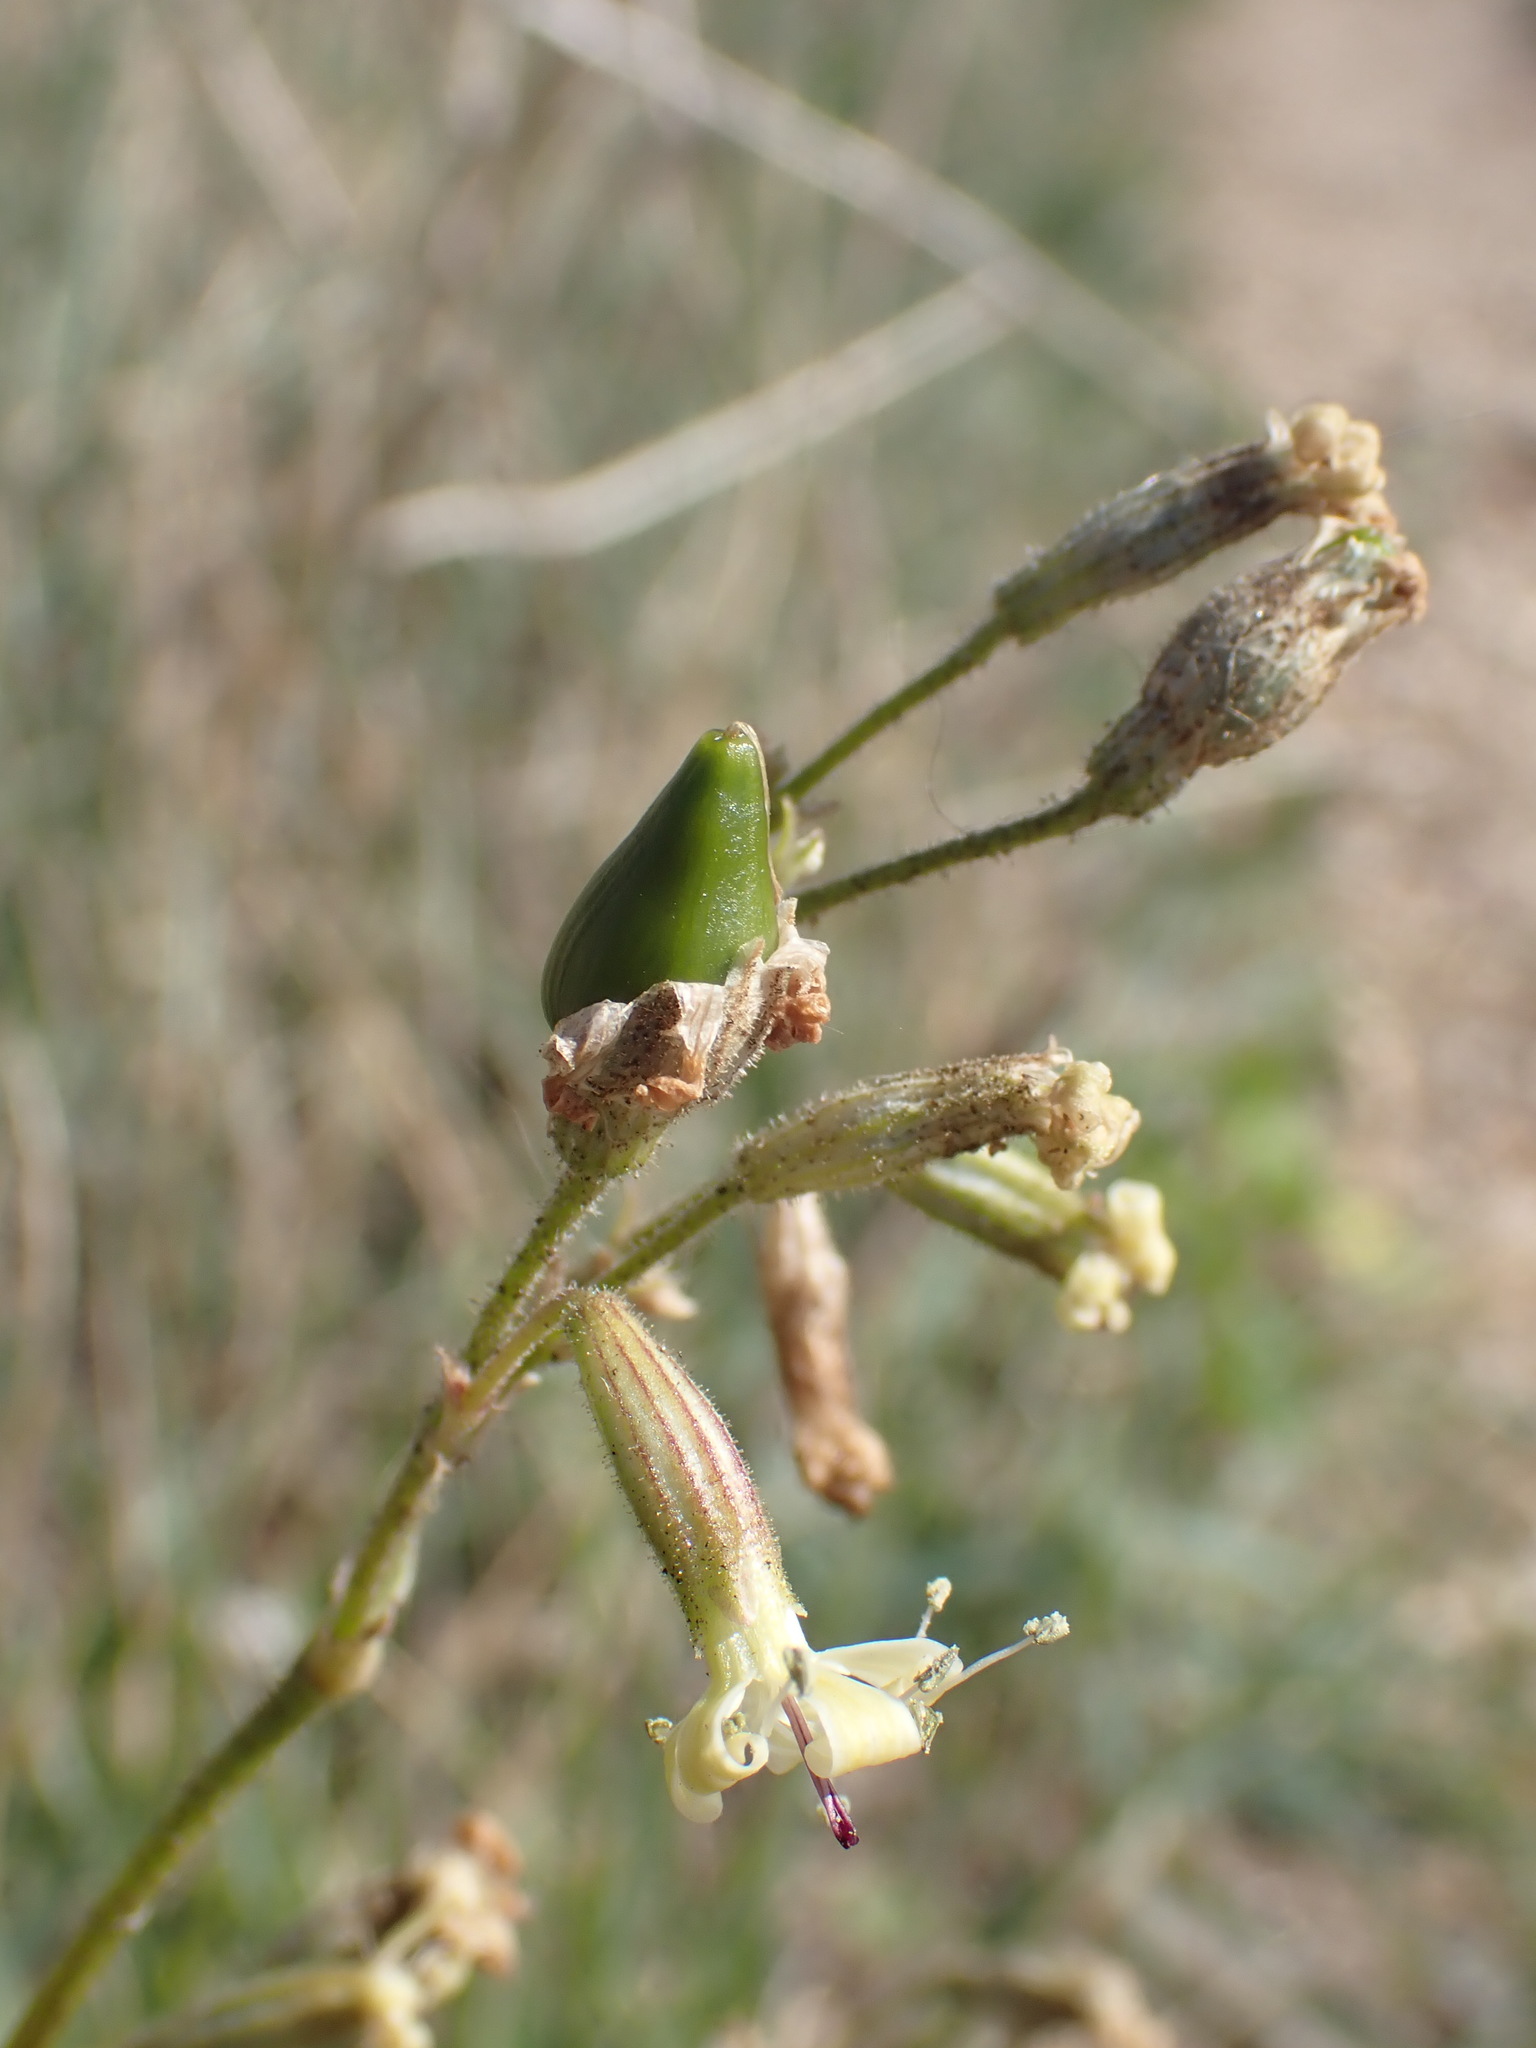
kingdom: Plantae
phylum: Tracheophyta
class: Magnoliopsida
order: Caryophyllales
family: Caryophyllaceae
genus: Silene
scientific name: Silene nutans
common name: Nottingham catchfly
